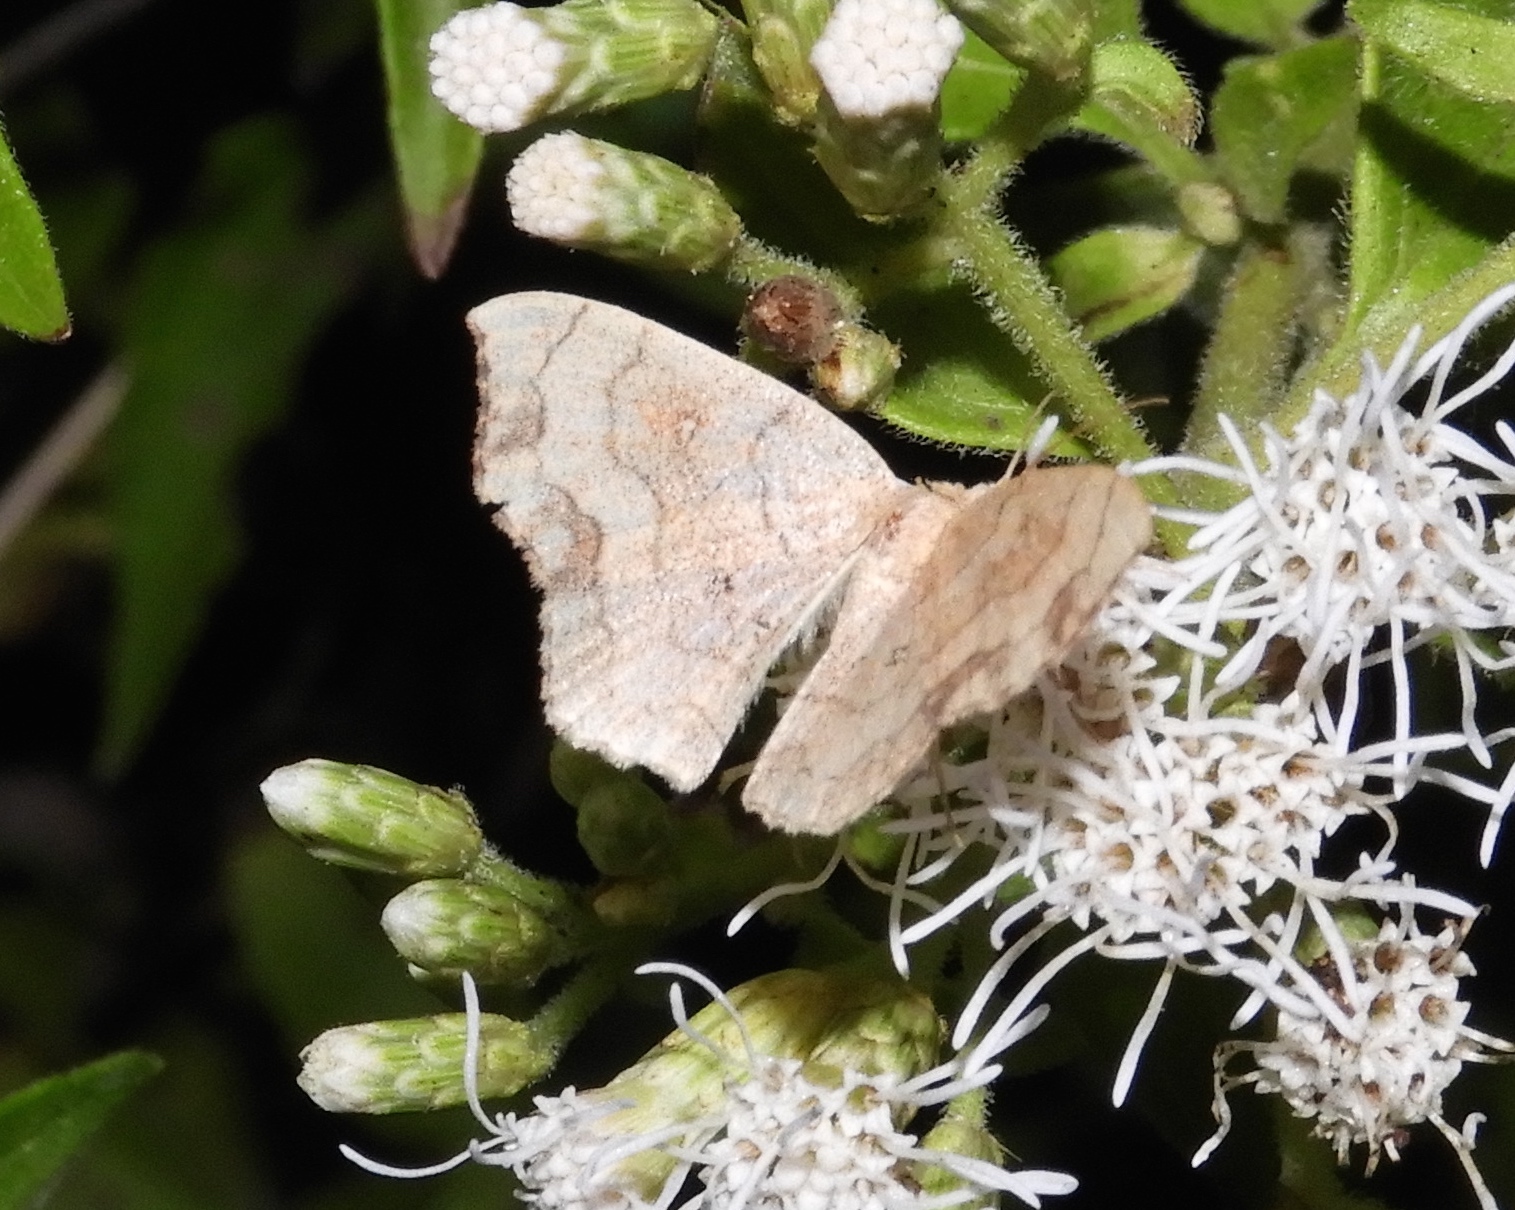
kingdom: Animalia
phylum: Arthropoda
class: Insecta
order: Lepidoptera
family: Geometridae
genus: Semaeopus
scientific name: Semaeopus
